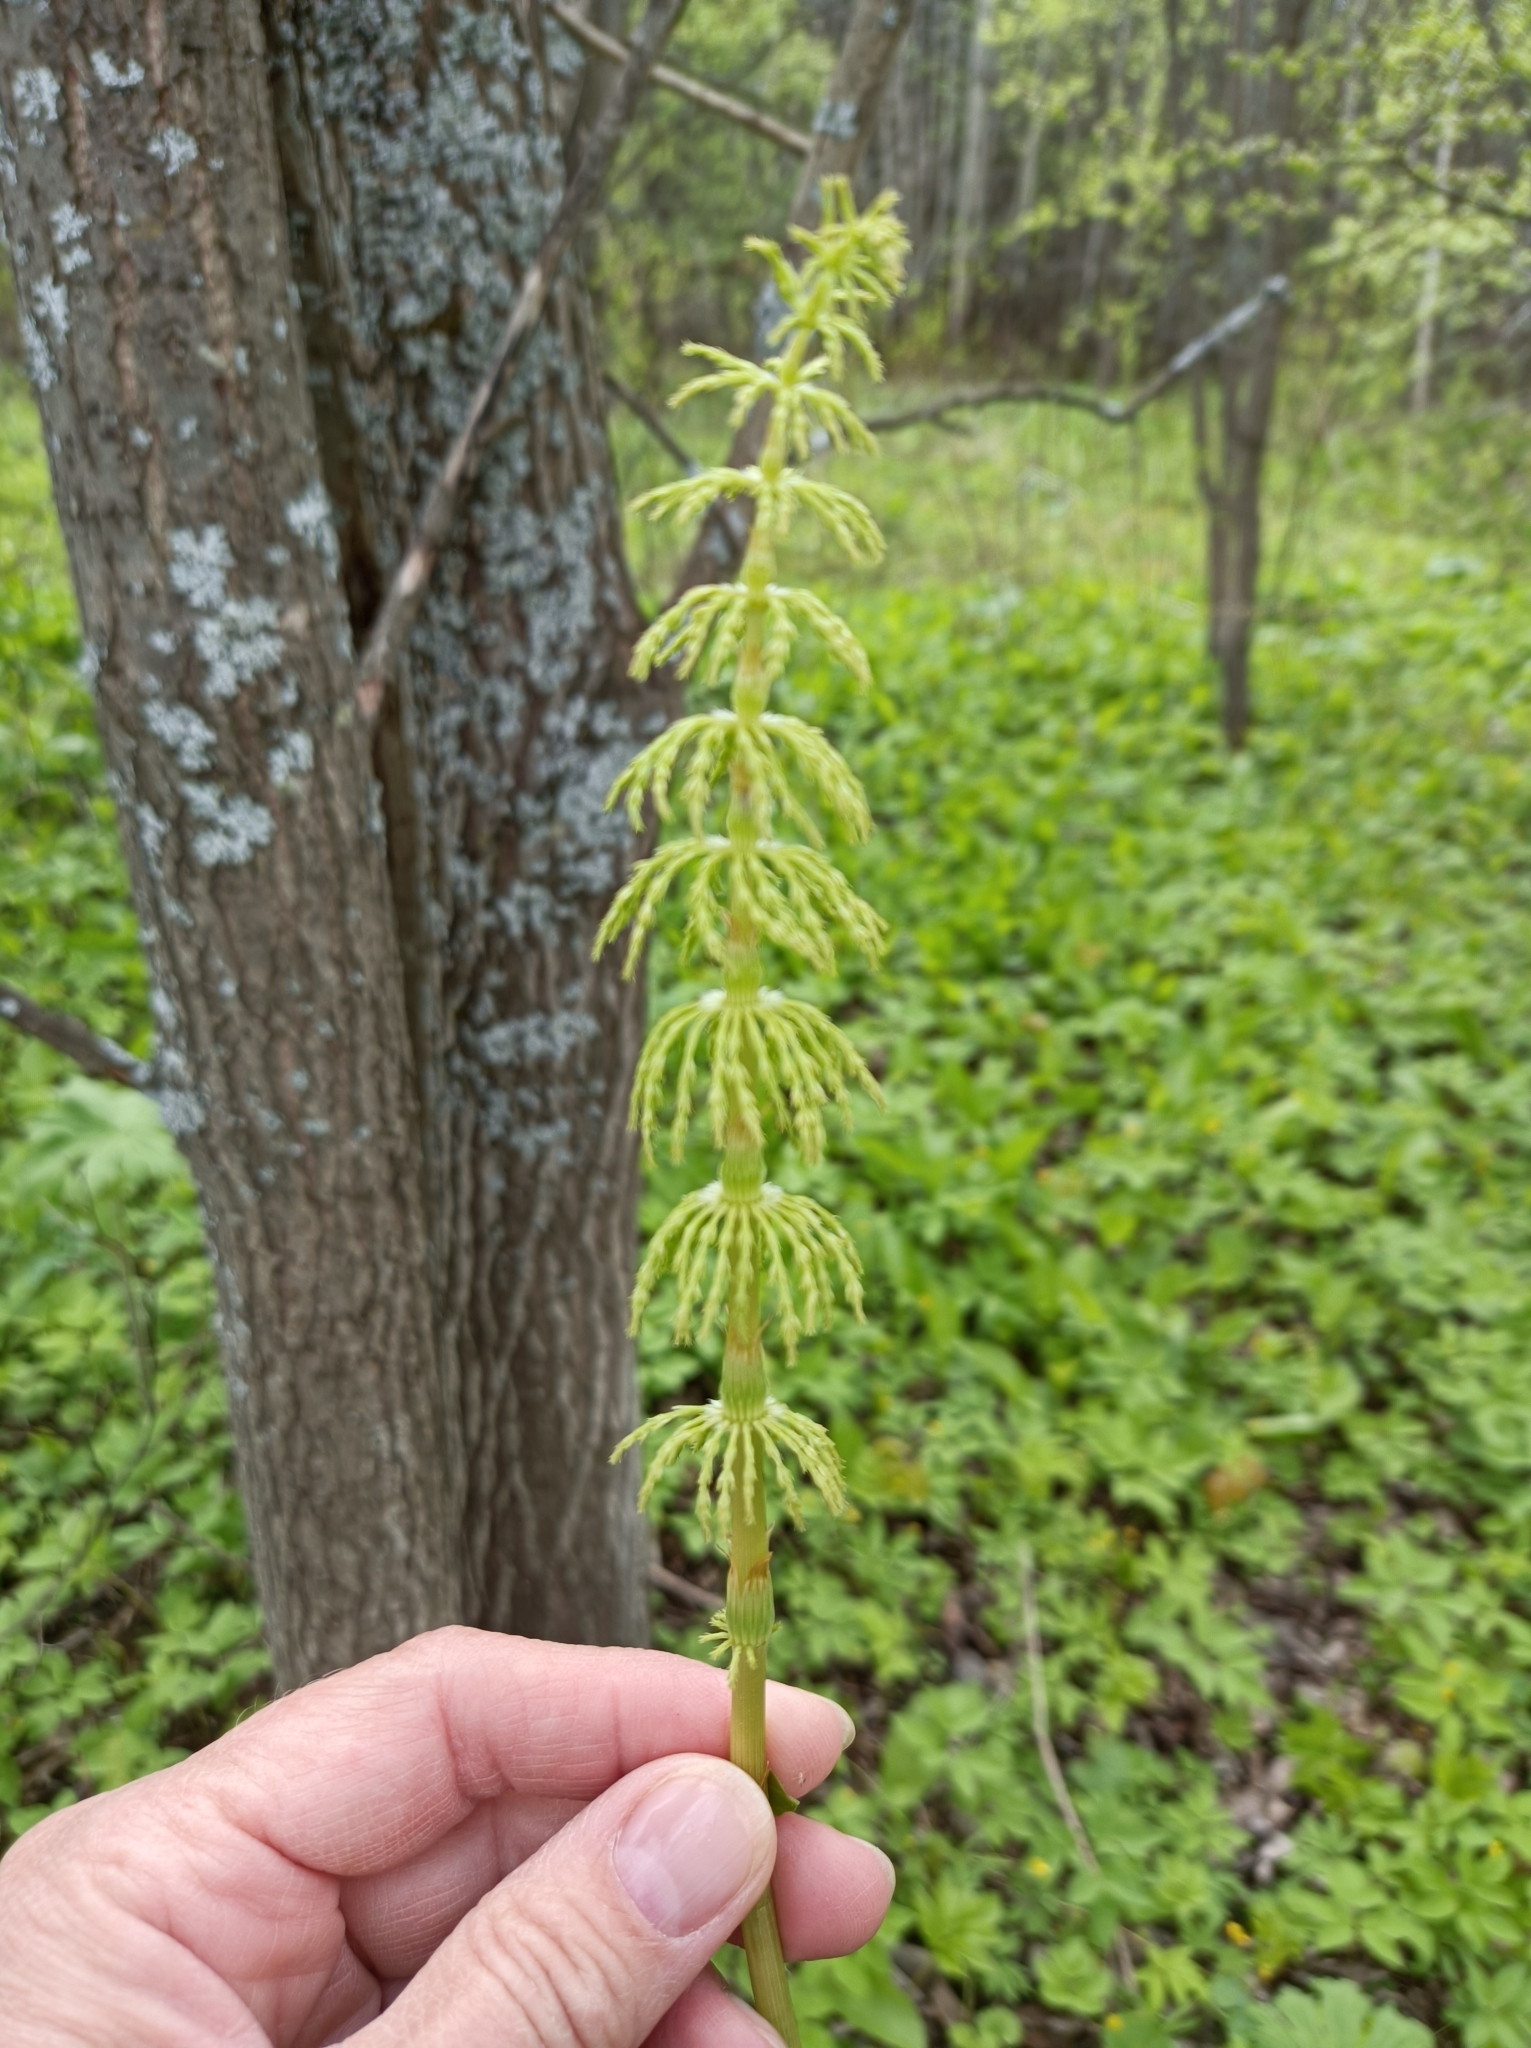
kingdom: Plantae
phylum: Tracheophyta
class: Polypodiopsida
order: Equisetales
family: Equisetaceae
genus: Equisetum
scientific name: Equisetum sylvaticum
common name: Wood horsetail
